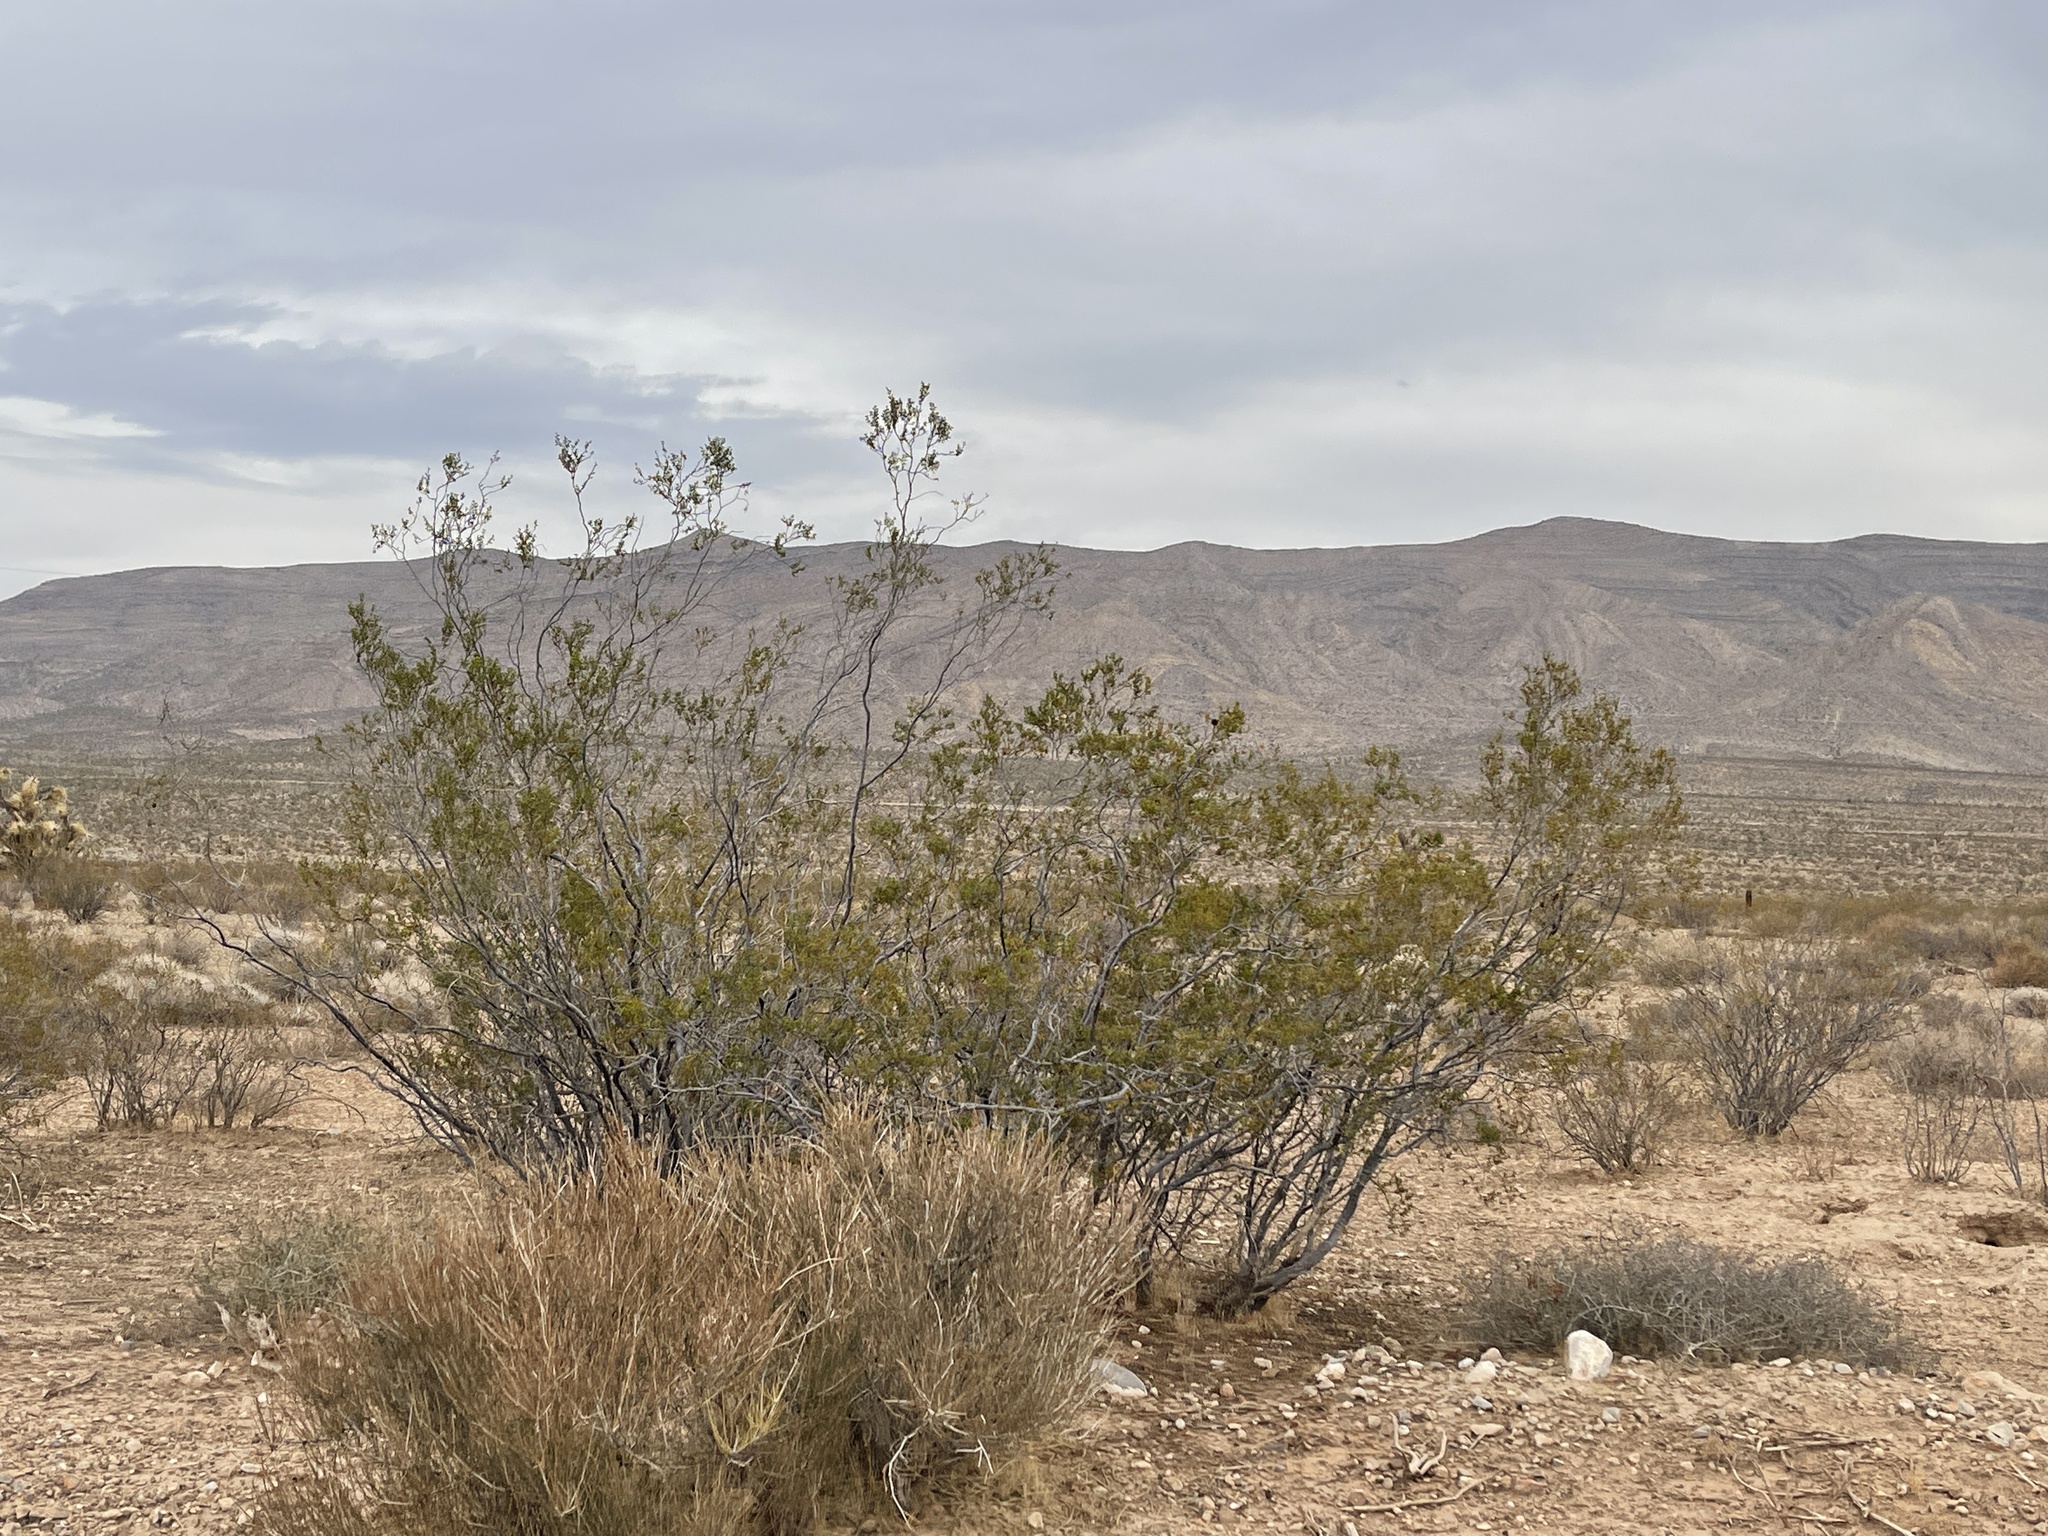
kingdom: Plantae
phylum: Tracheophyta
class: Magnoliopsida
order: Zygophyllales
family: Zygophyllaceae
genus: Larrea
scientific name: Larrea tridentata
